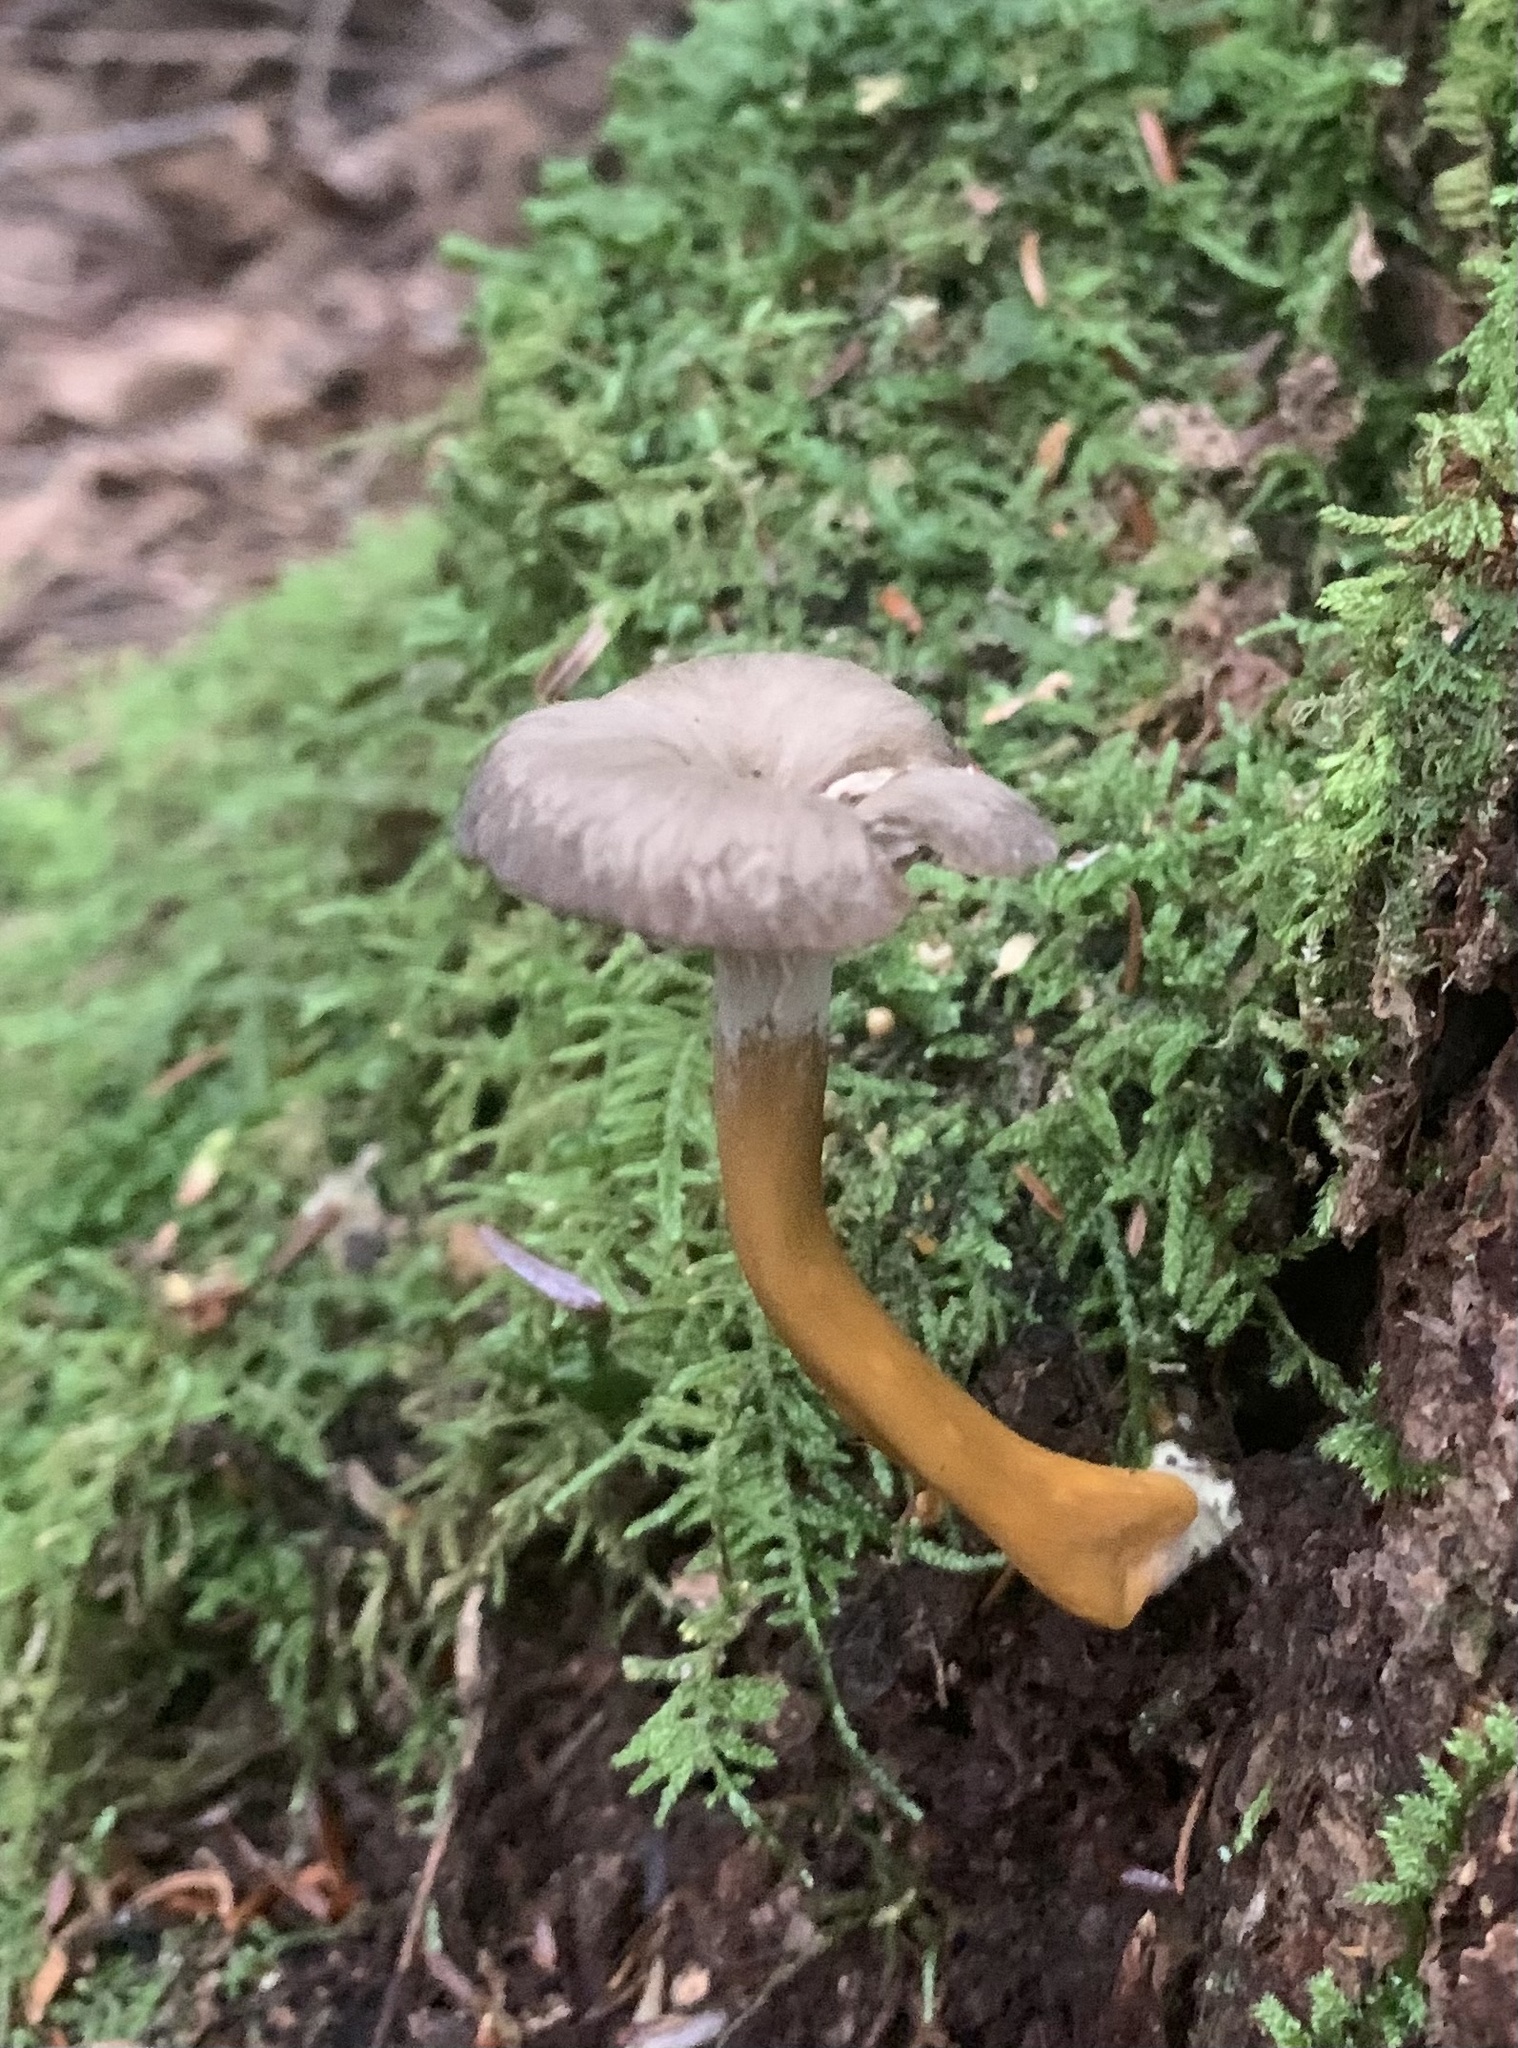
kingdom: Fungi
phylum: Basidiomycota
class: Agaricomycetes
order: Cantharellales
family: Hydnaceae
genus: Craterellus
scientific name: Craterellus tubaeformis
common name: Yellowfoot
